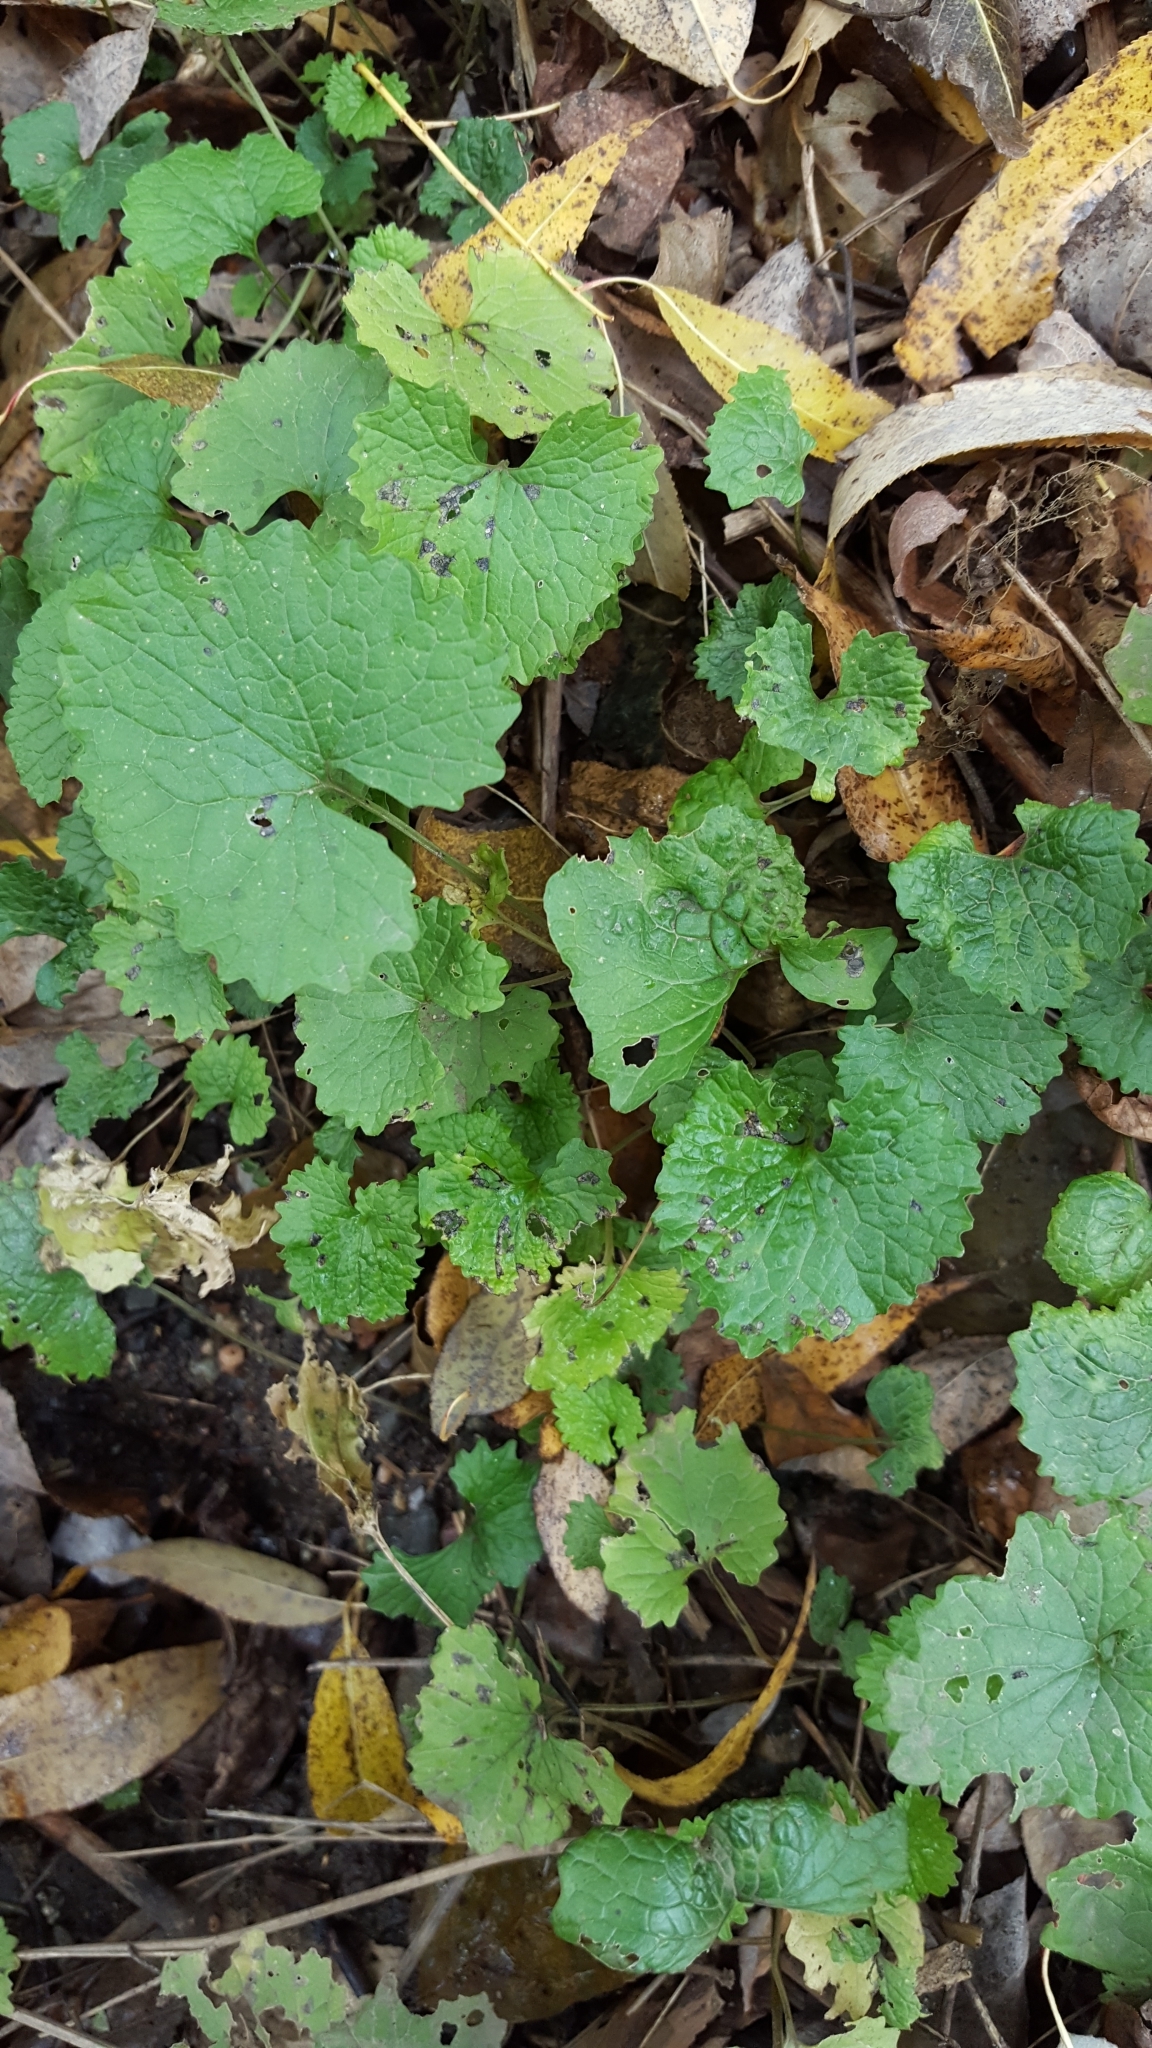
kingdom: Plantae
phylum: Tracheophyta
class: Magnoliopsida
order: Brassicales
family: Brassicaceae
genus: Alliaria
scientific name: Alliaria petiolata
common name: Garlic mustard
